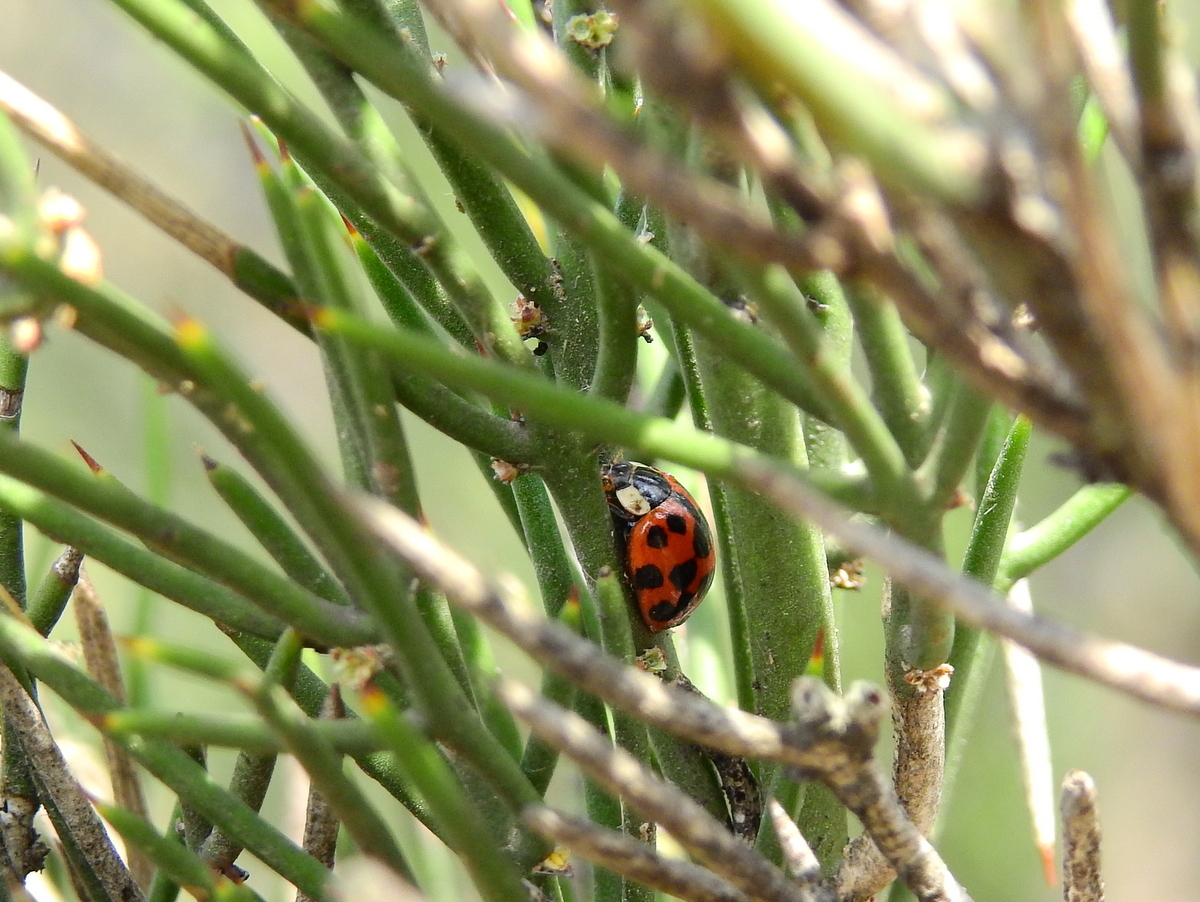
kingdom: Animalia
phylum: Arthropoda
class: Insecta
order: Coleoptera
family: Coccinellidae
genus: Harmonia
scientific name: Harmonia axyridis
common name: Harlequin ladybird
